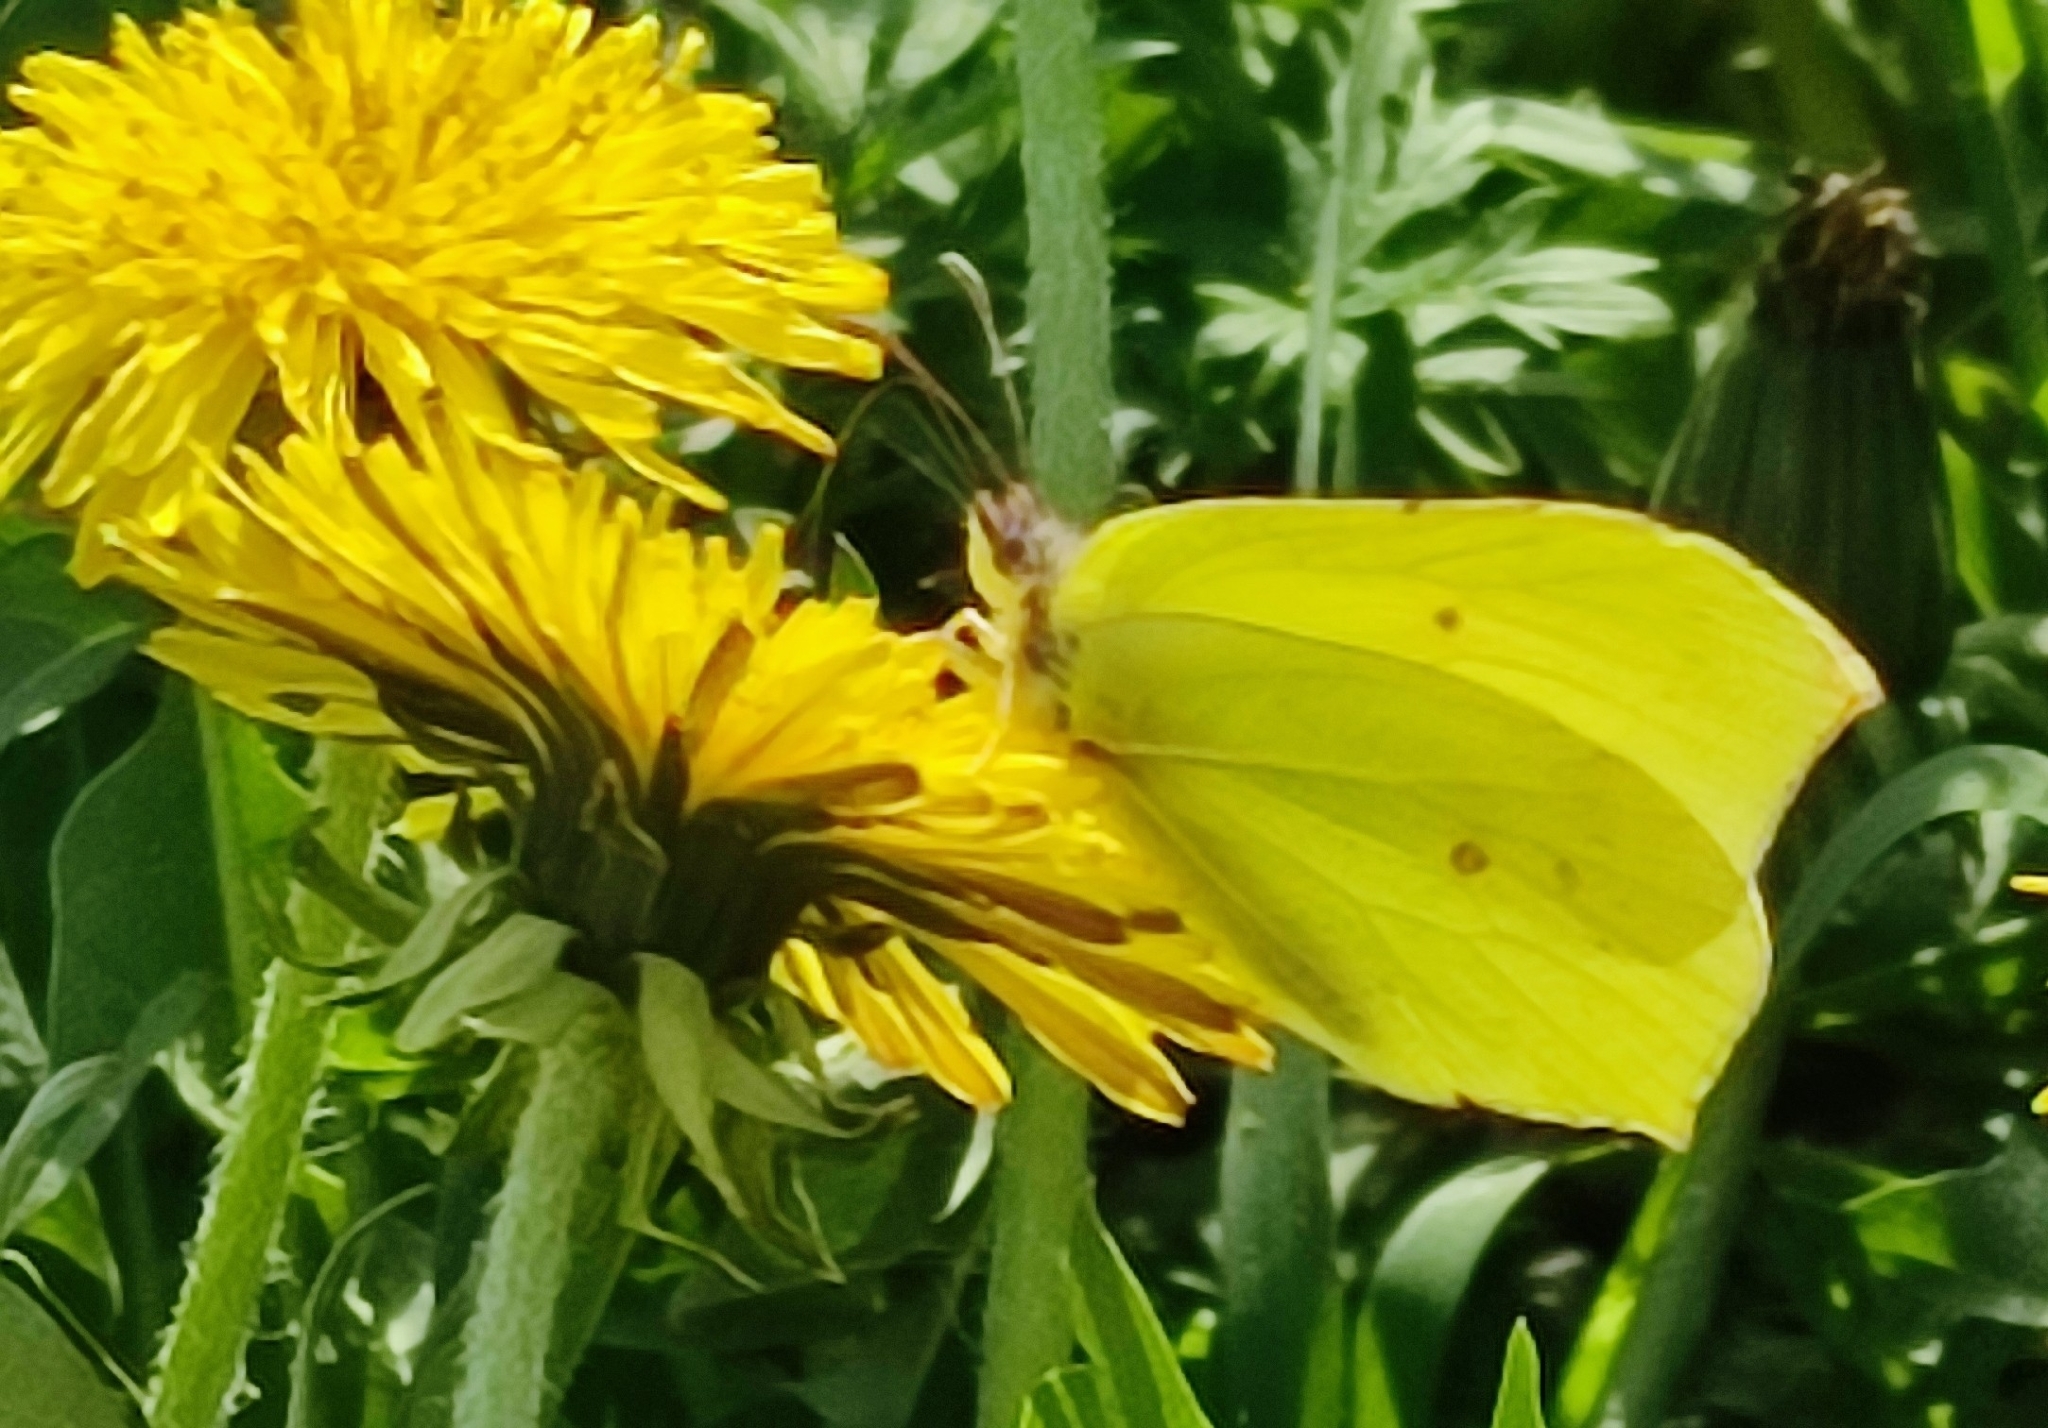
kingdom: Animalia
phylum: Arthropoda
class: Insecta
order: Lepidoptera
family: Pieridae
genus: Gonepteryx
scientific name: Gonepteryx rhamni
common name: Brimstone
